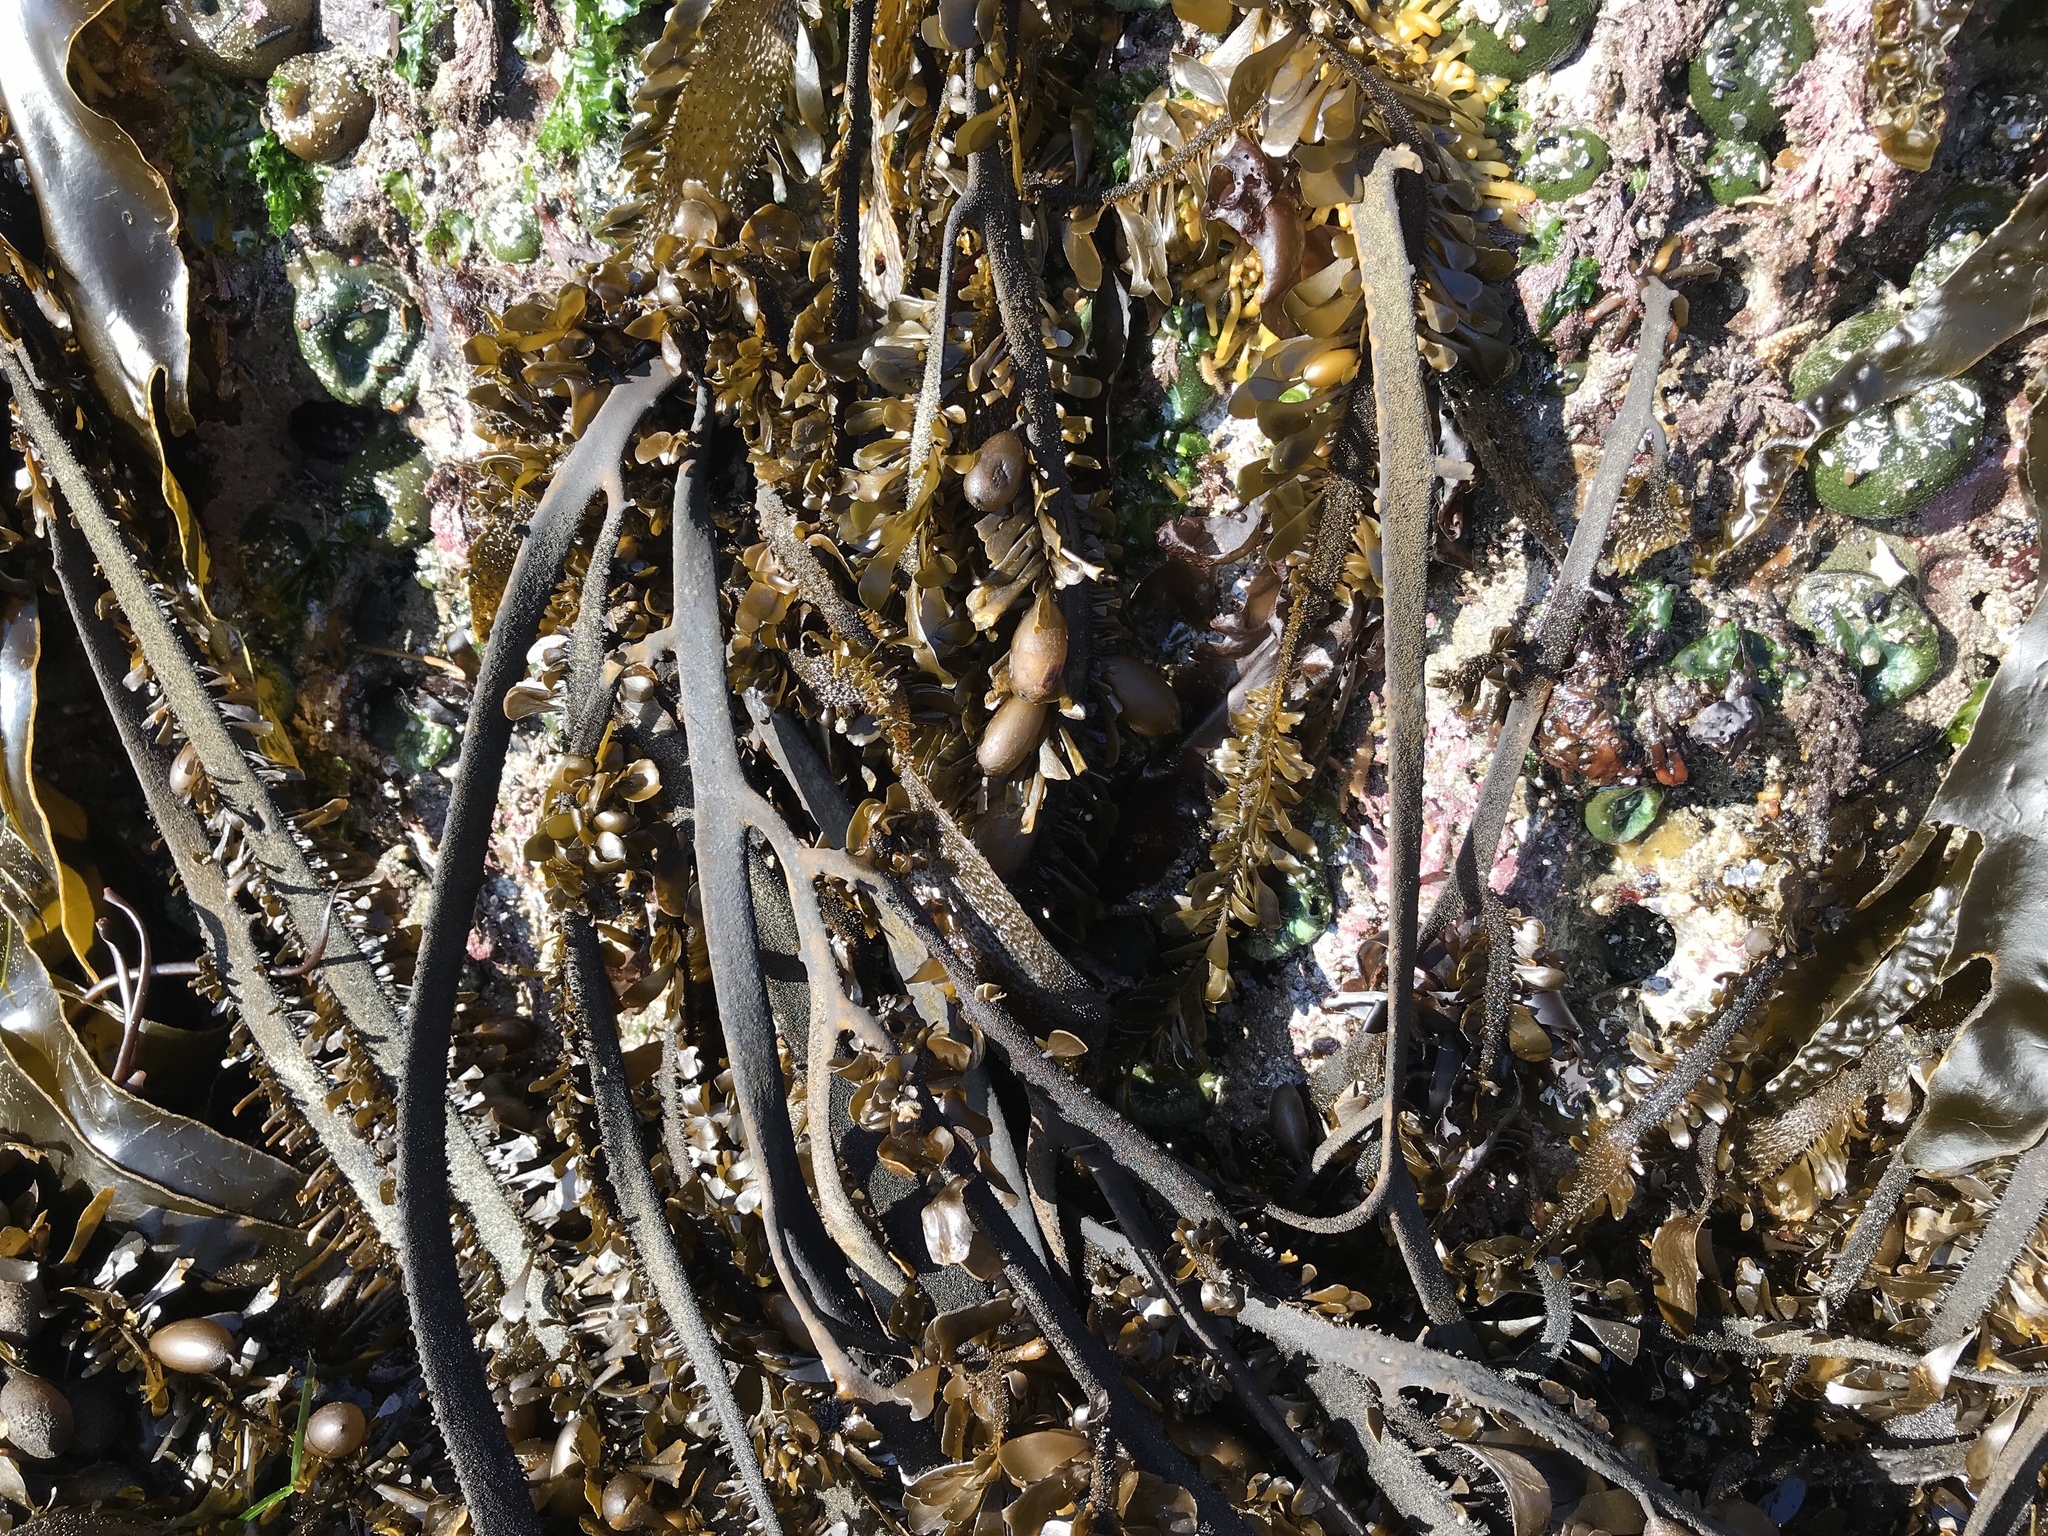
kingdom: Chromista
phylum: Ochrophyta
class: Phaeophyceae
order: Laminariales
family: Lessoniaceae
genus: Egregia
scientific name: Egregia menziesii
